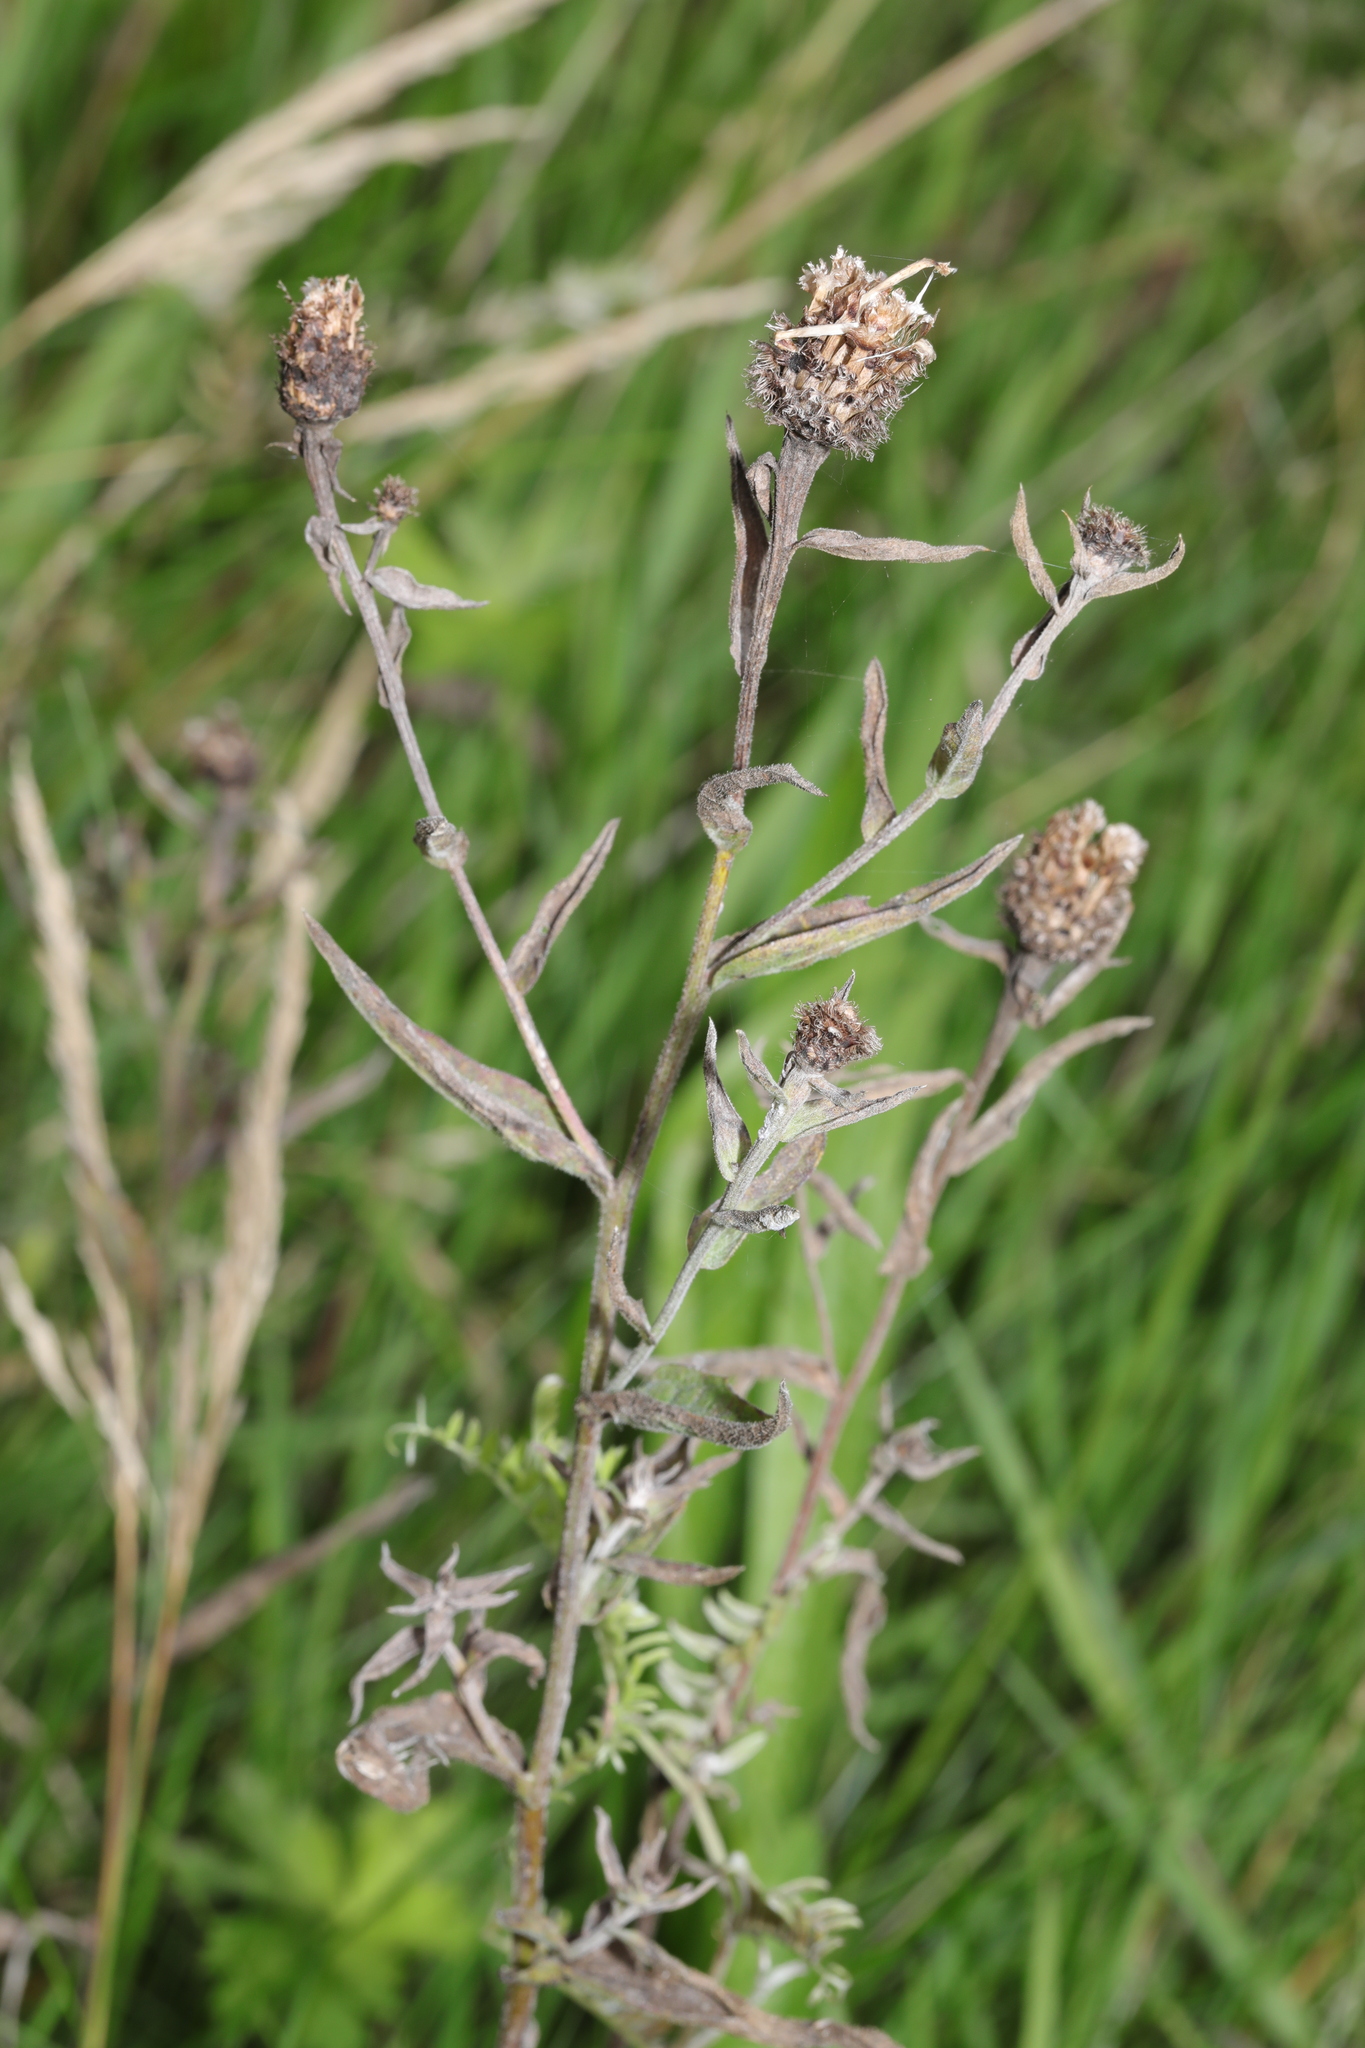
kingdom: Plantae
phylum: Tracheophyta
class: Magnoliopsida
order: Asterales
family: Asteraceae
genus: Centaurea
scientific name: Centaurea nigra
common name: Lesser knapweed
